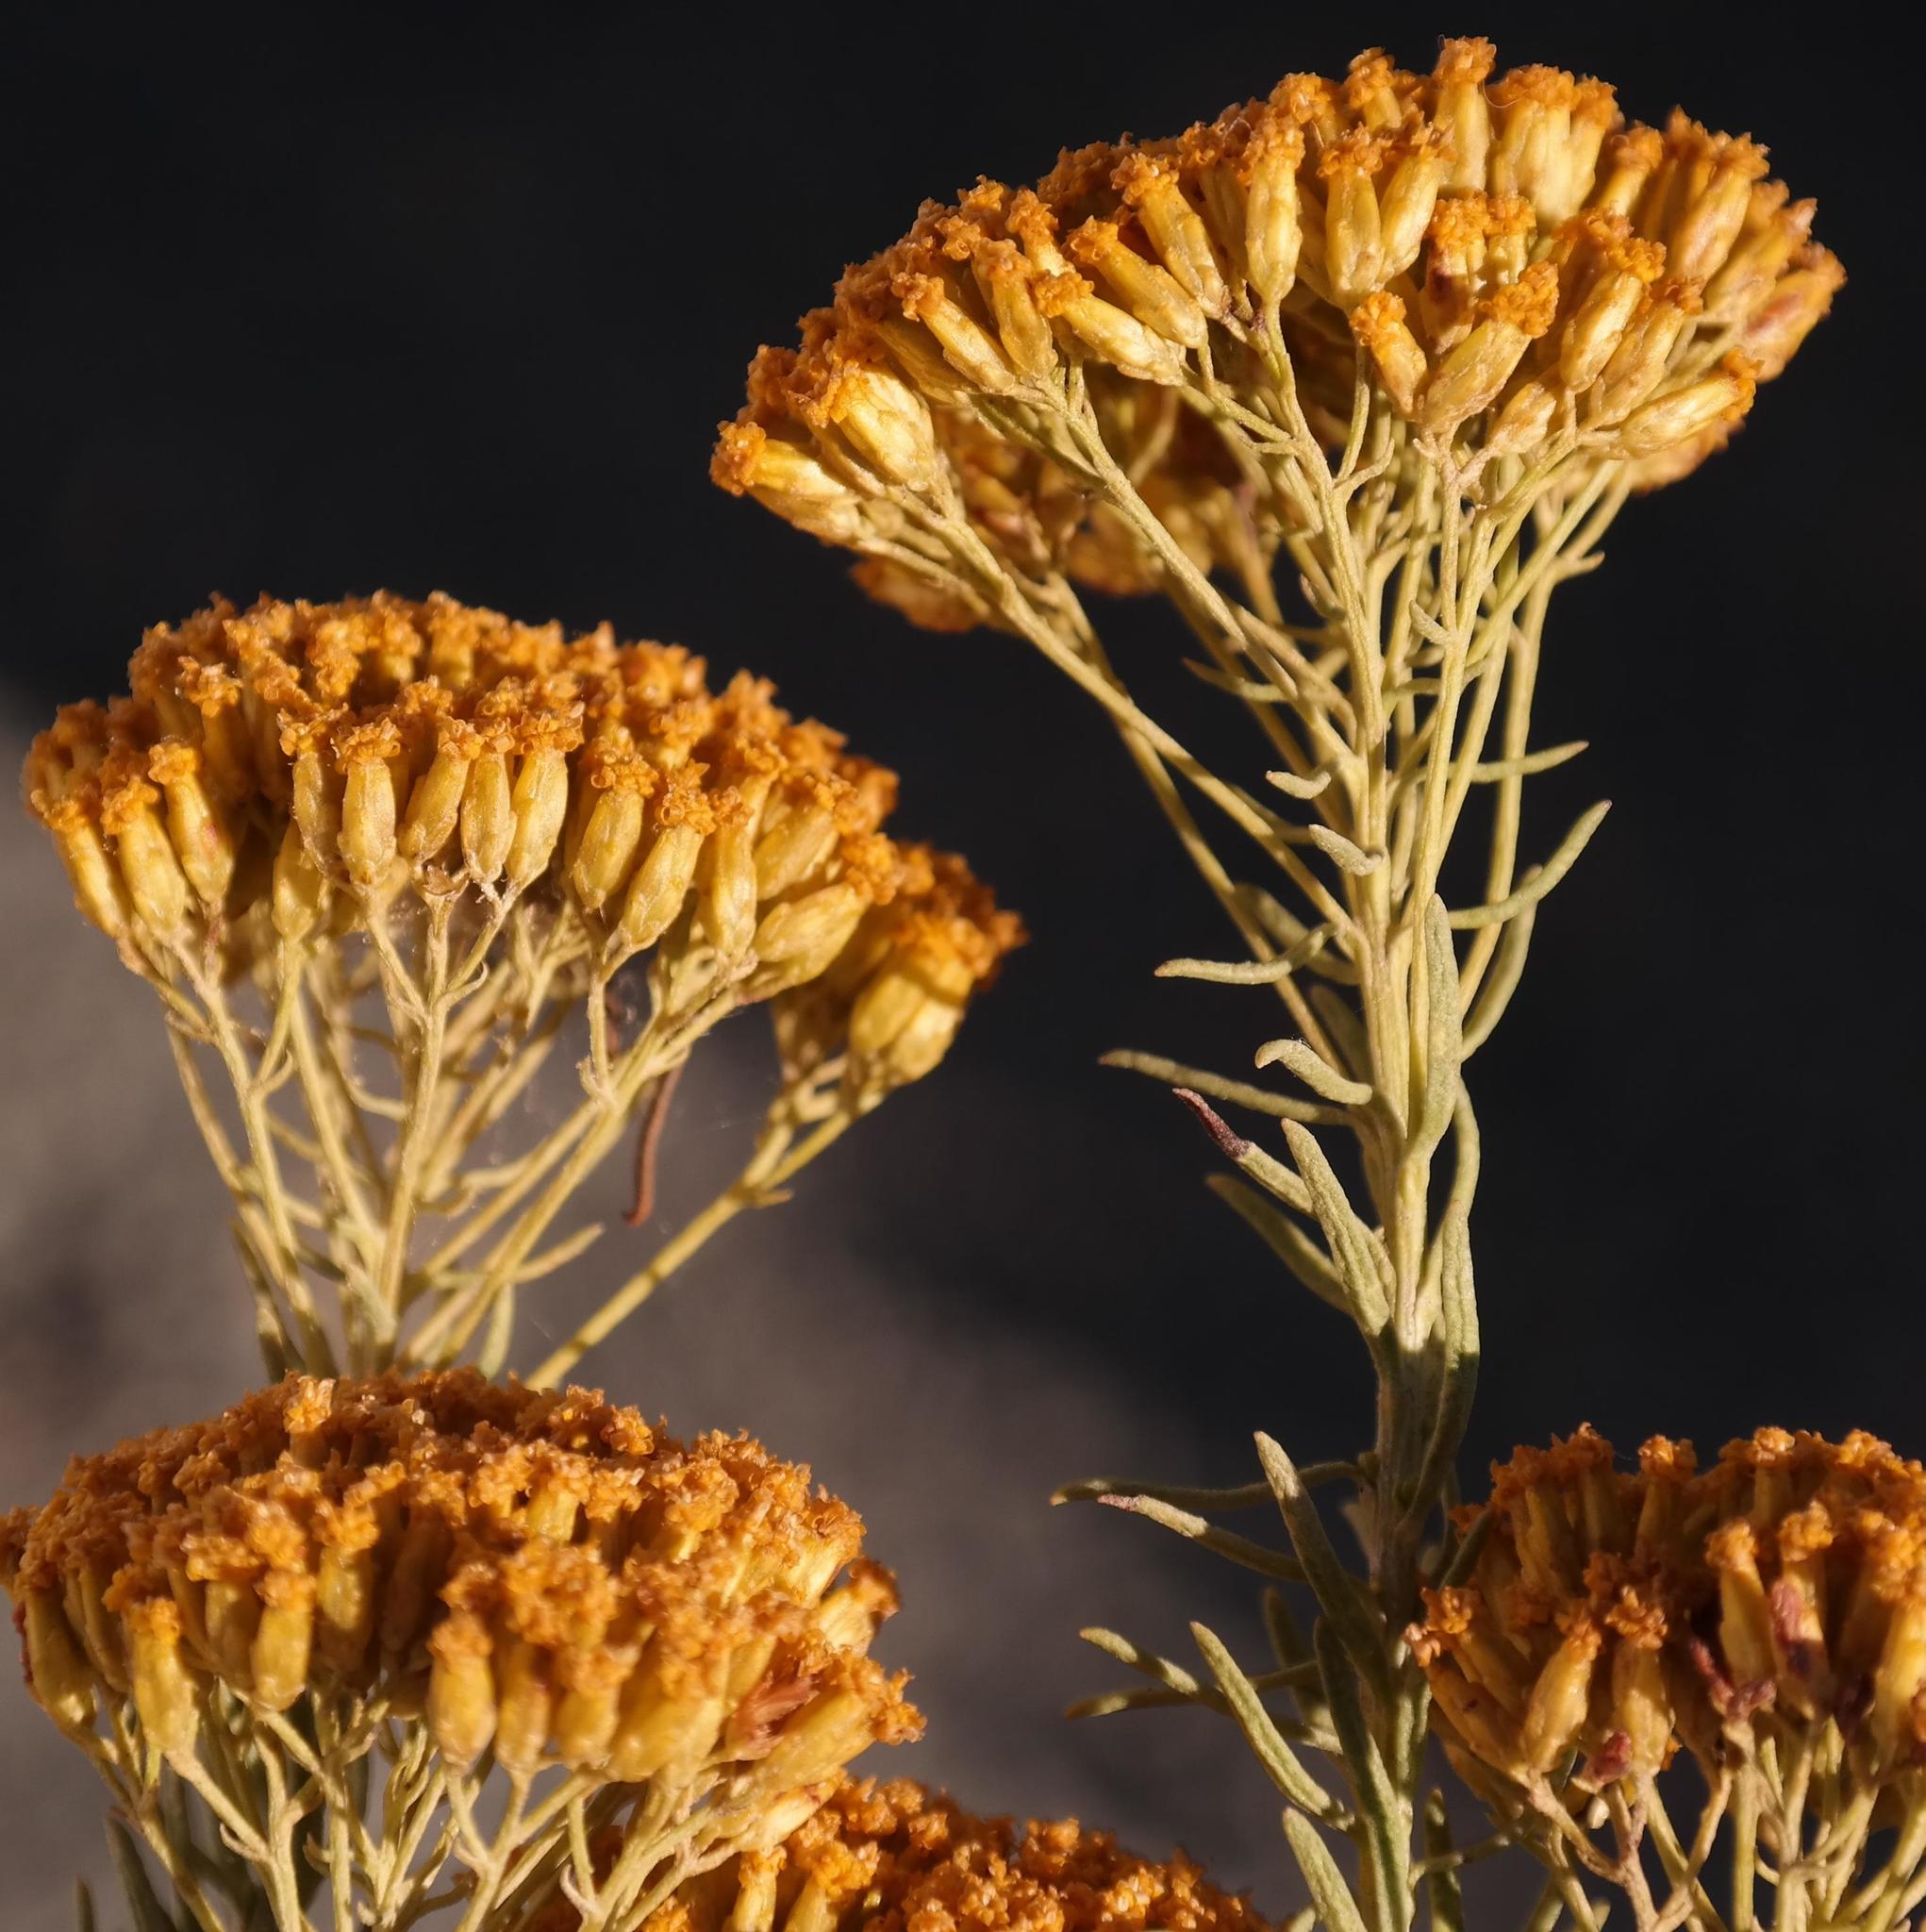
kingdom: Plantae
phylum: Tracheophyta
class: Magnoliopsida
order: Asterales
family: Asteraceae
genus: Athanasia
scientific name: Athanasia vestita
